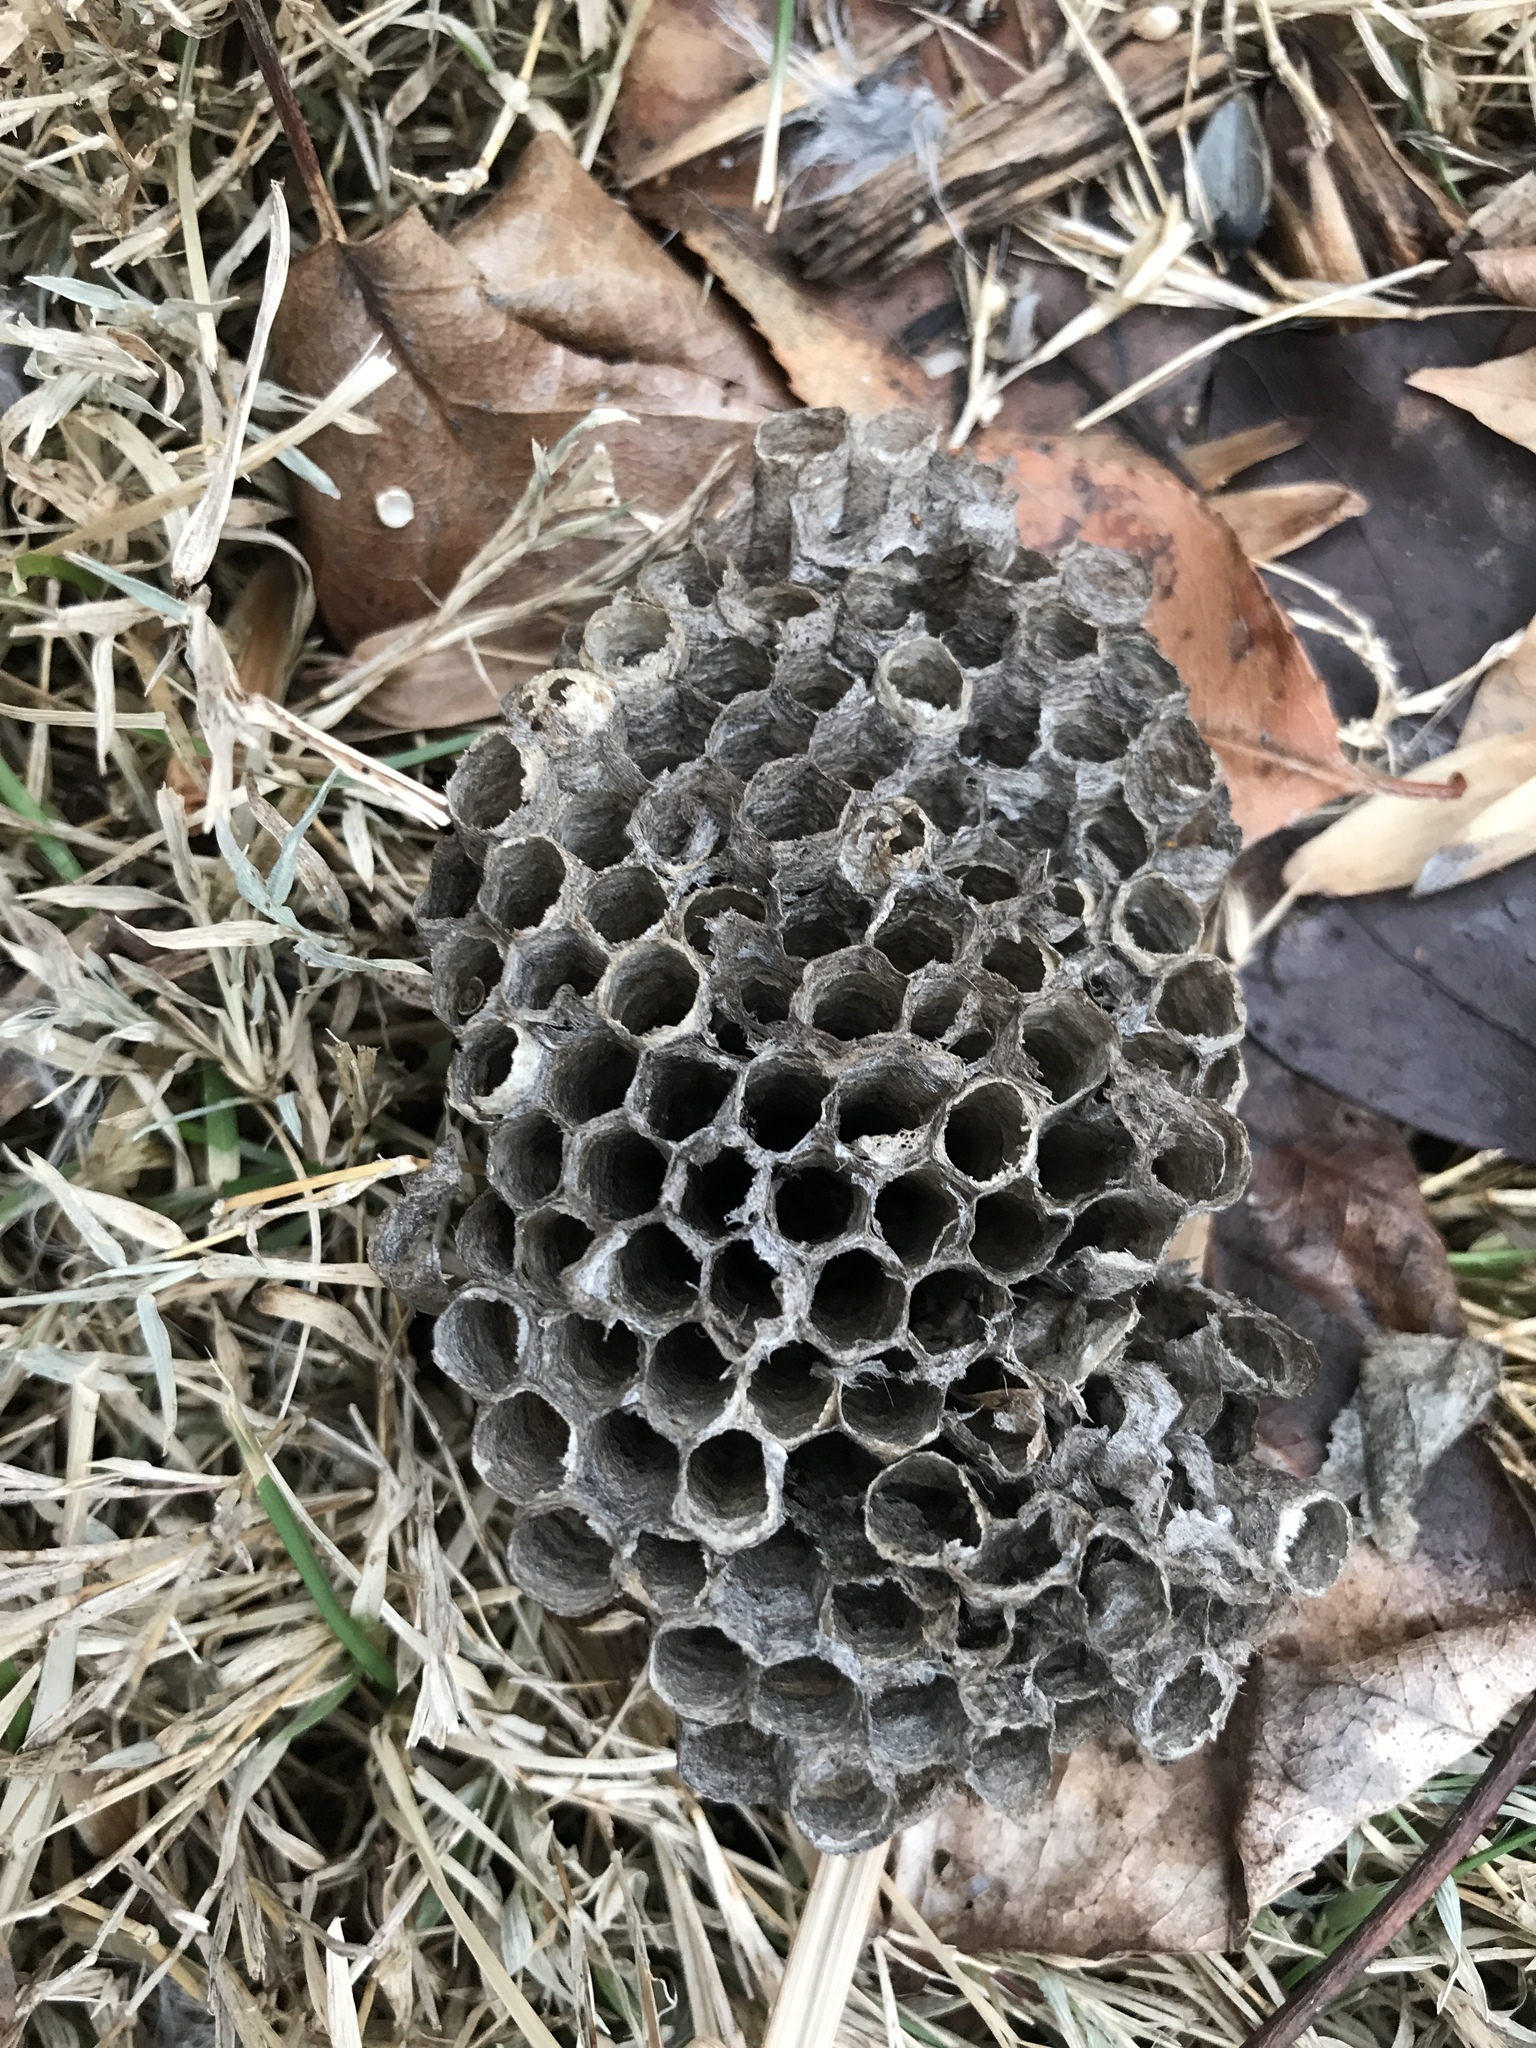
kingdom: Animalia
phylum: Arthropoda
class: Insecta
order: Hymenoptera
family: Eumenidae
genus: Polistes
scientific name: Polistes
